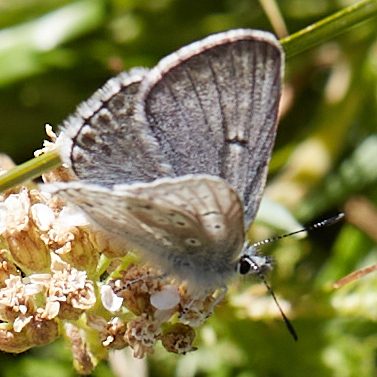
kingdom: Animalia
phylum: Arthropoda
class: Insecta
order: Lepidoptera
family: Lycaenidae
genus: Agriades
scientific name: Agriades podarce
